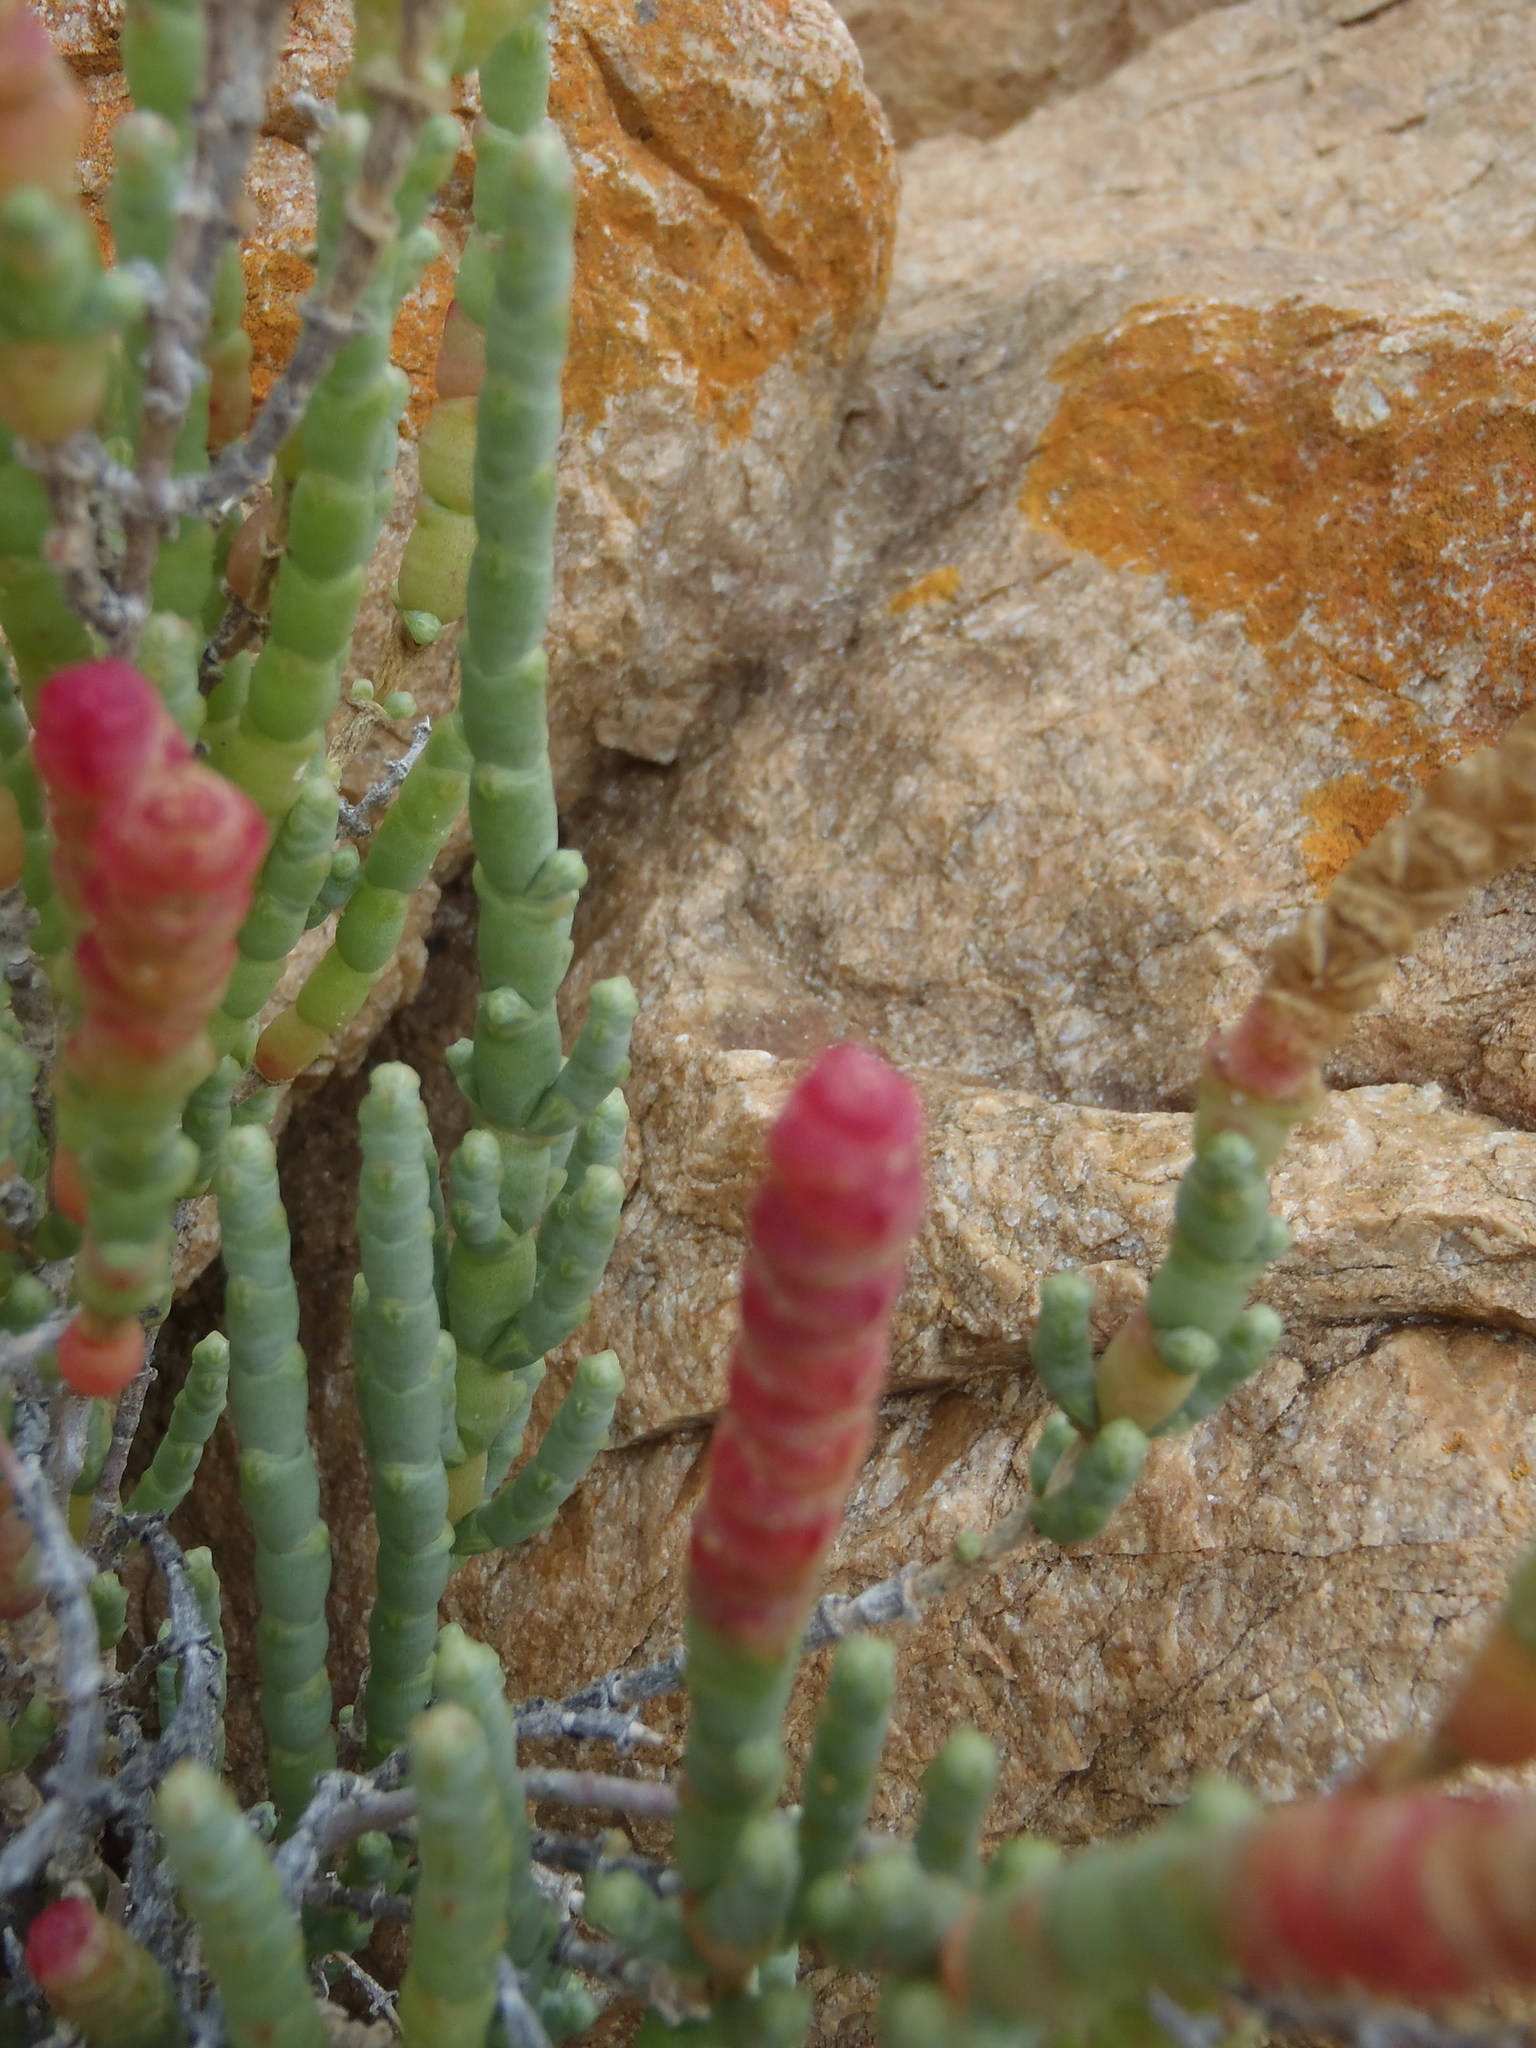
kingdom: Plantae
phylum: Tracheophyta
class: Magnoliopsida
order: Caryophyllales
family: Amaranthaceae
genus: Salicornia
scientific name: Salicornia littorea
